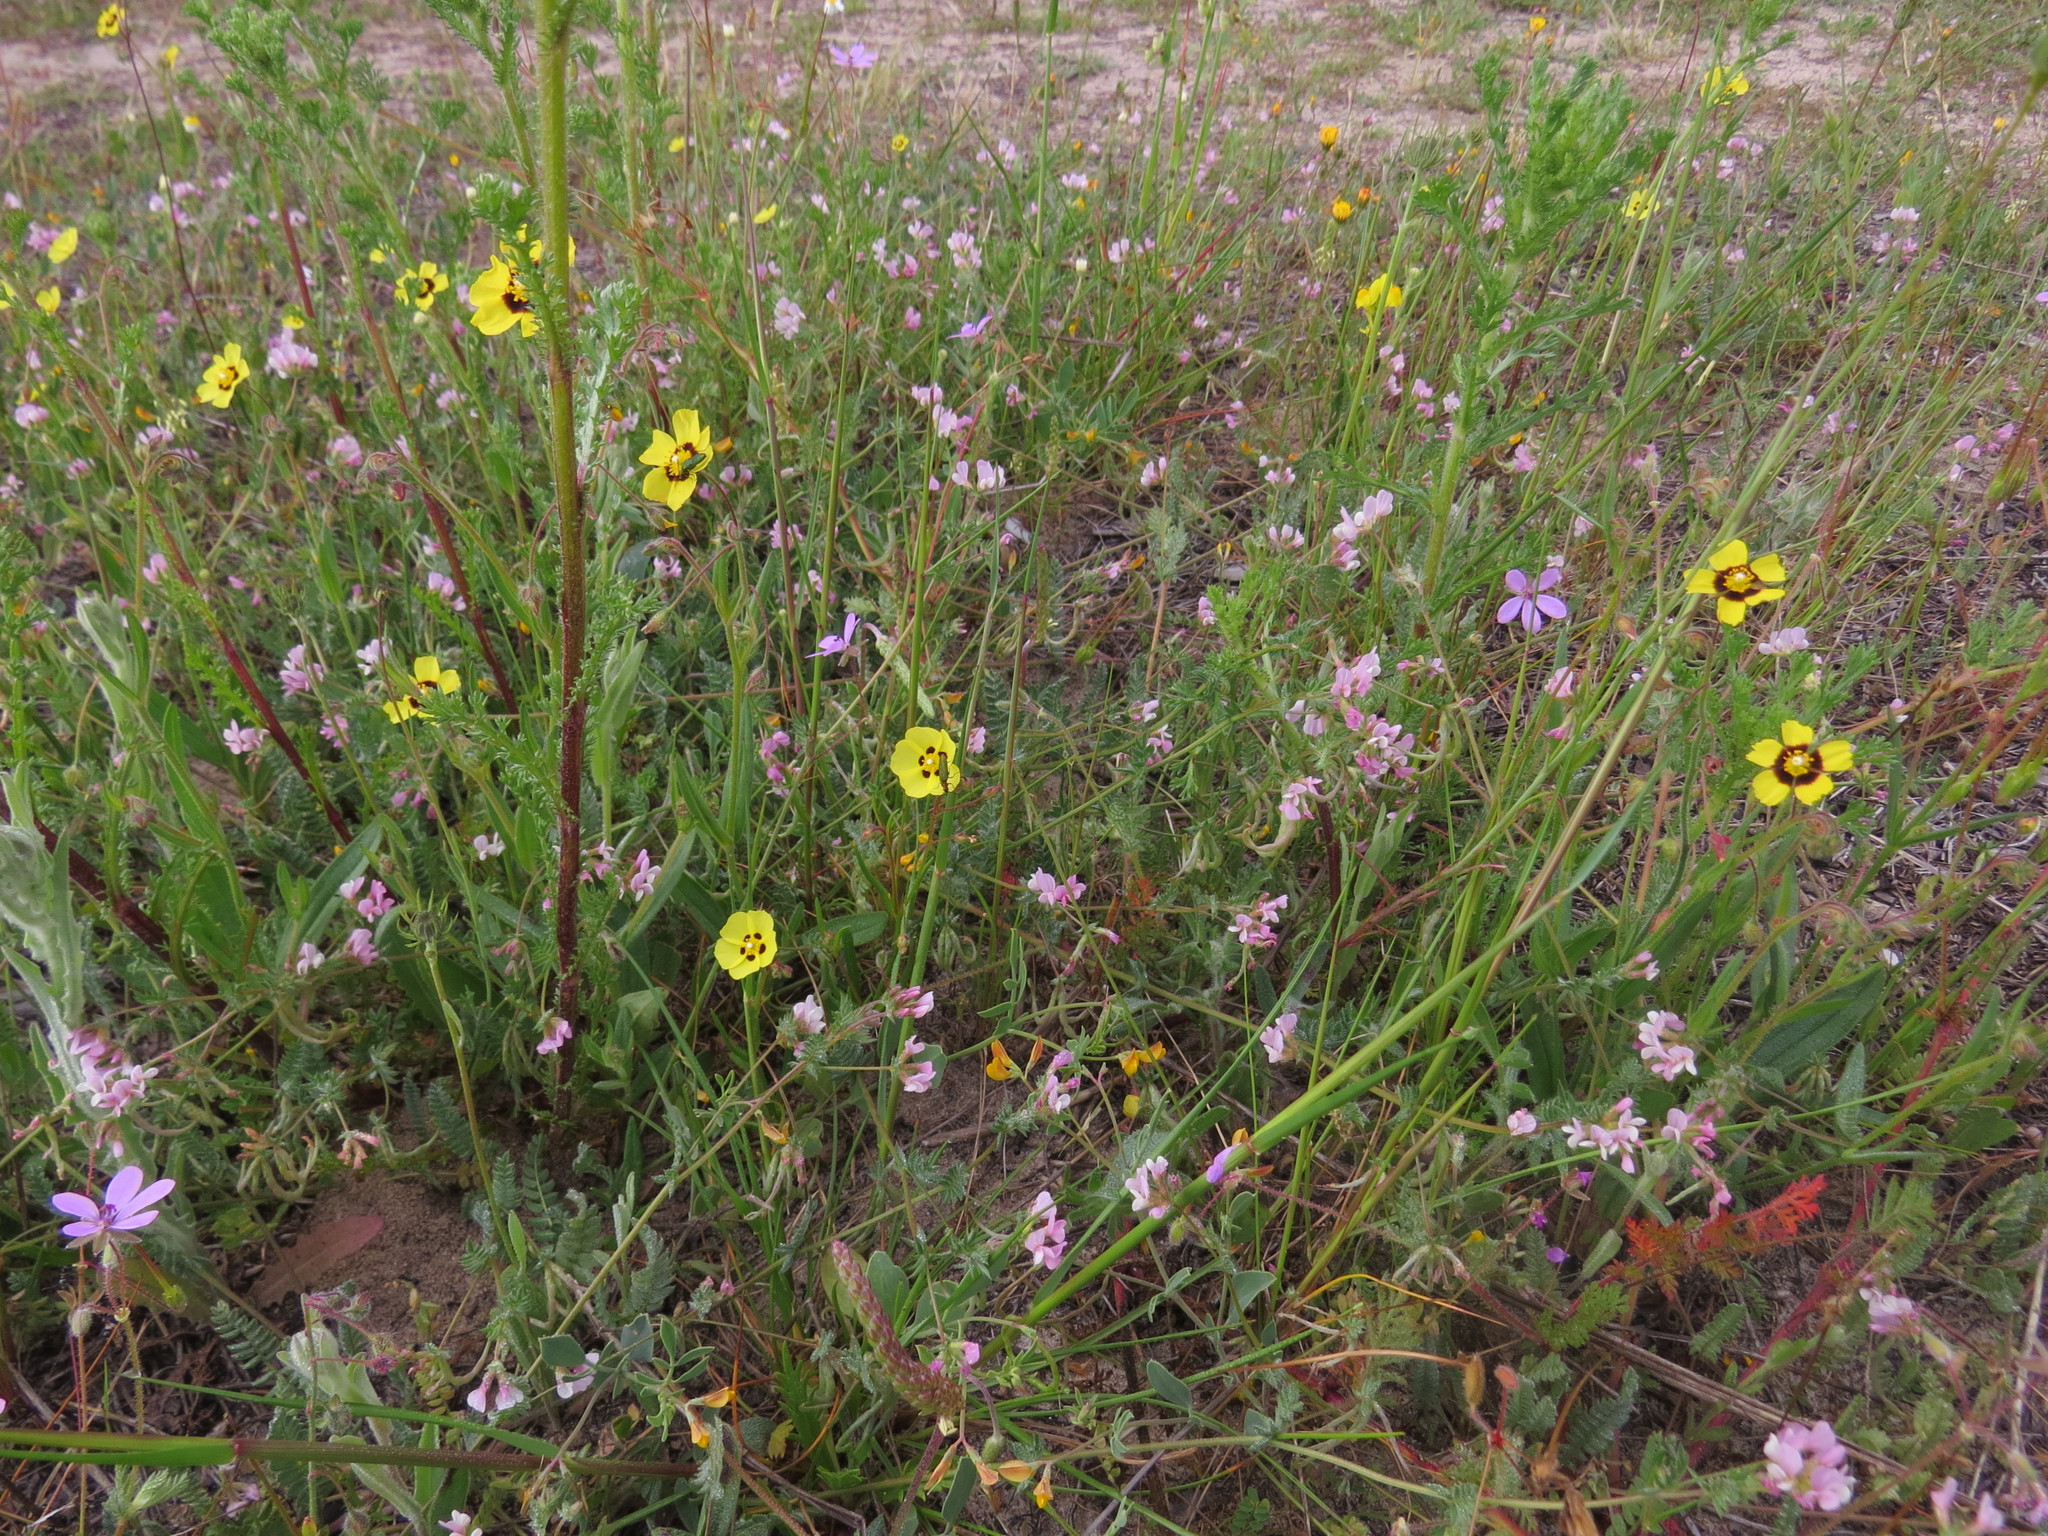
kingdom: Plantae
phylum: Tracheophyta
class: Magnoliopsida
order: Malvales
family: Cistaceae
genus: Tuberaria
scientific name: Tuberaria guttata
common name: Spotted rock-rose
